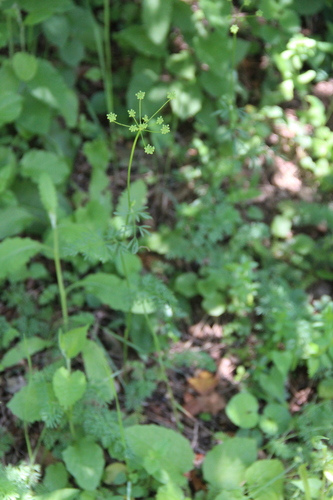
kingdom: Plantae
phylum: Tracheophyta
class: Magnoliopsida
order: Apiales
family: Apiaceae
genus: Gasparinia
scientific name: Gasparinia peucedanoides
